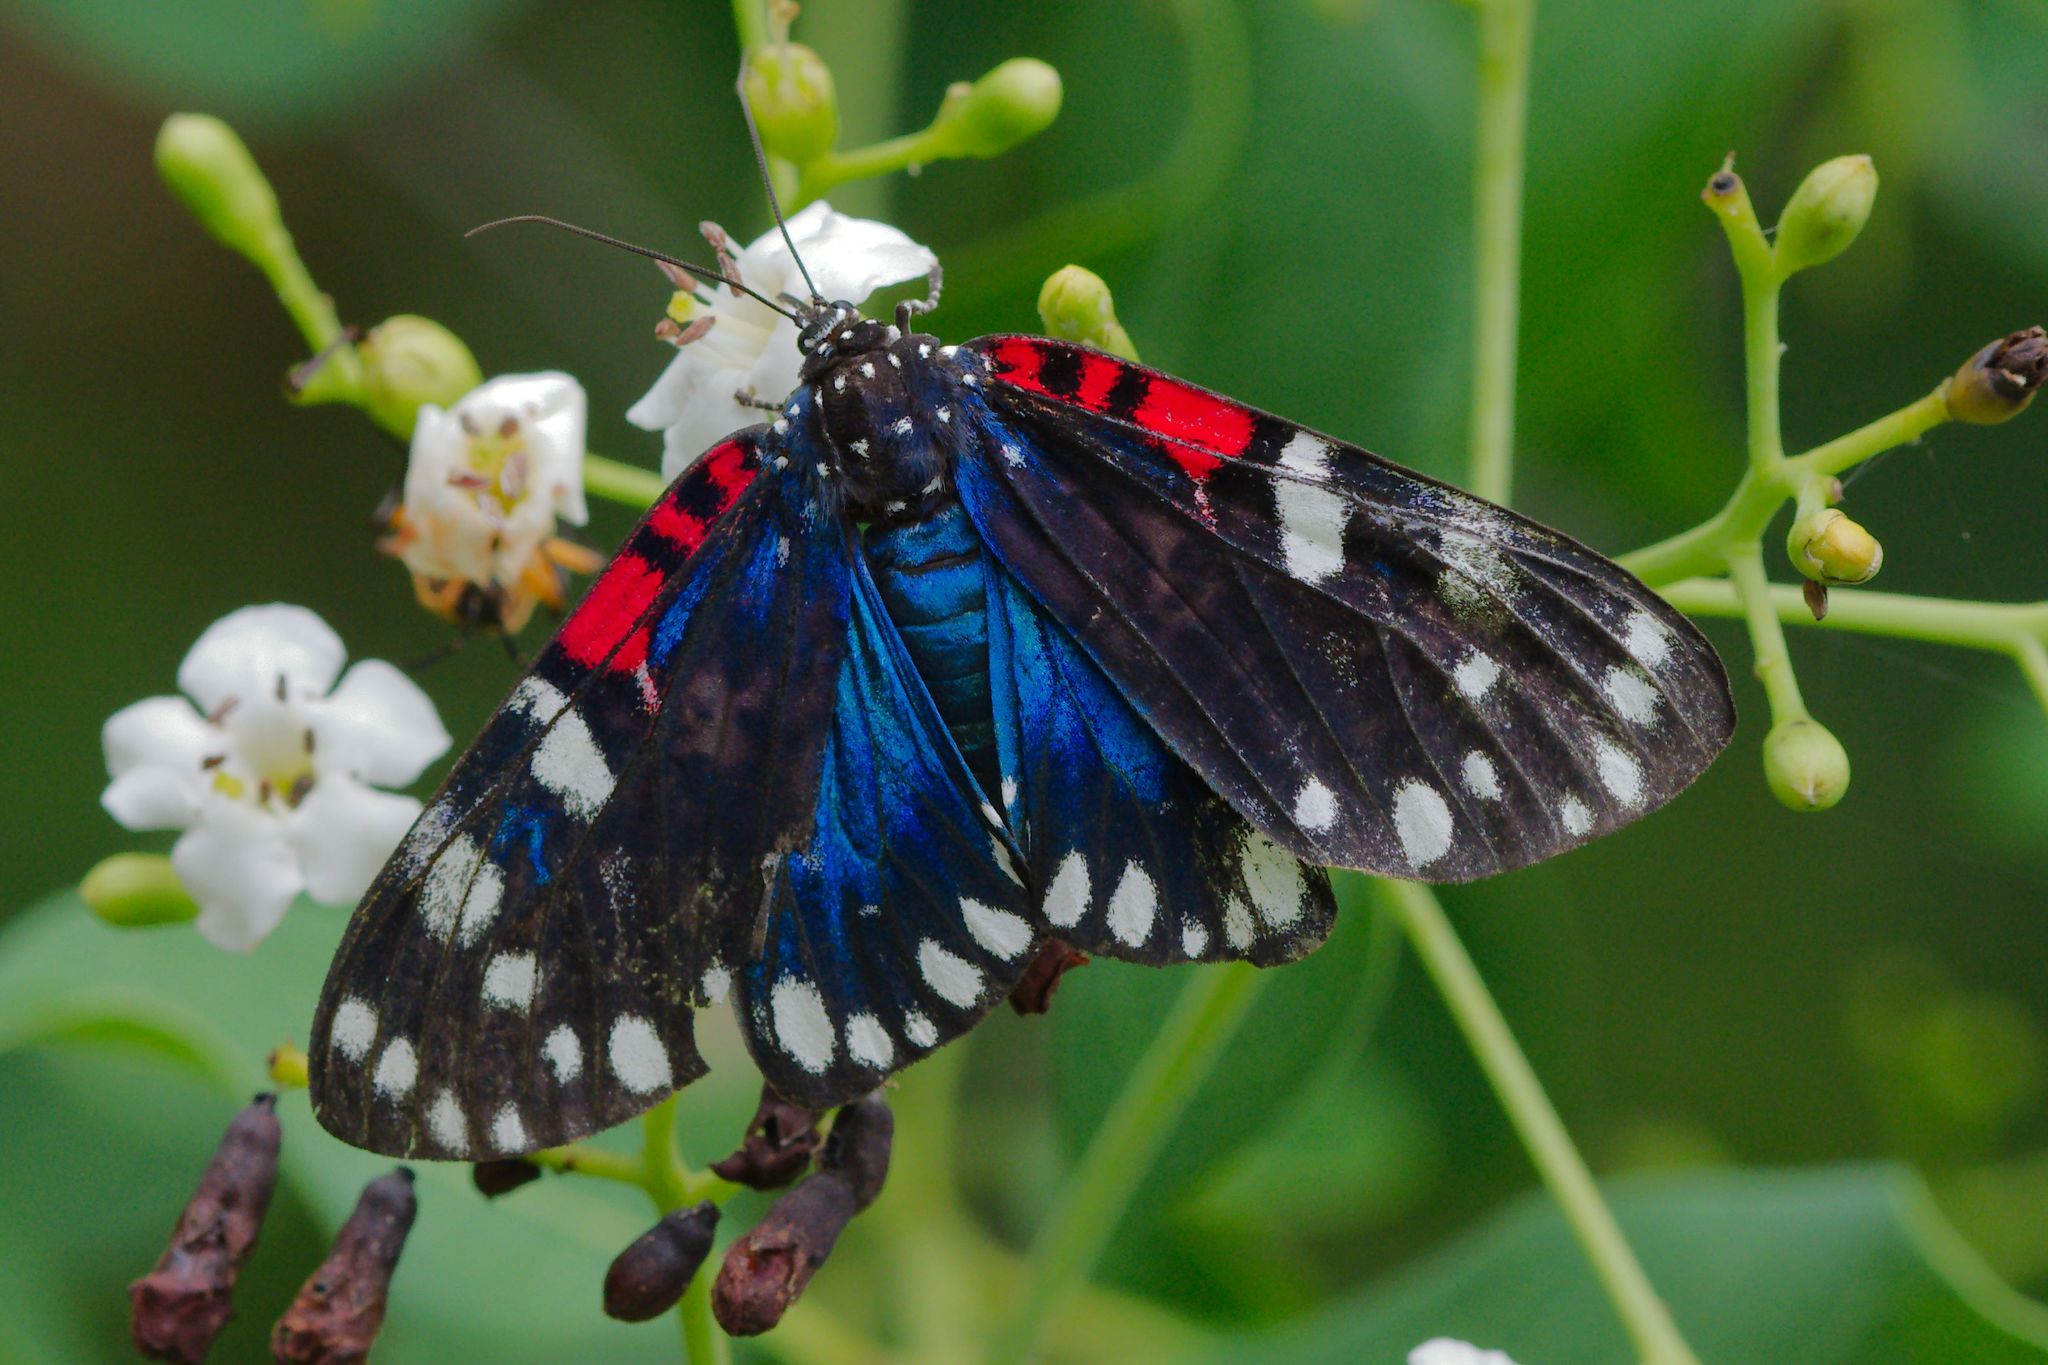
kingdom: Animalia
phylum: Arthropoda
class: Insecta
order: Lepidoptera
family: Erebidae
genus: Composia
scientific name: Composia fidelissima
